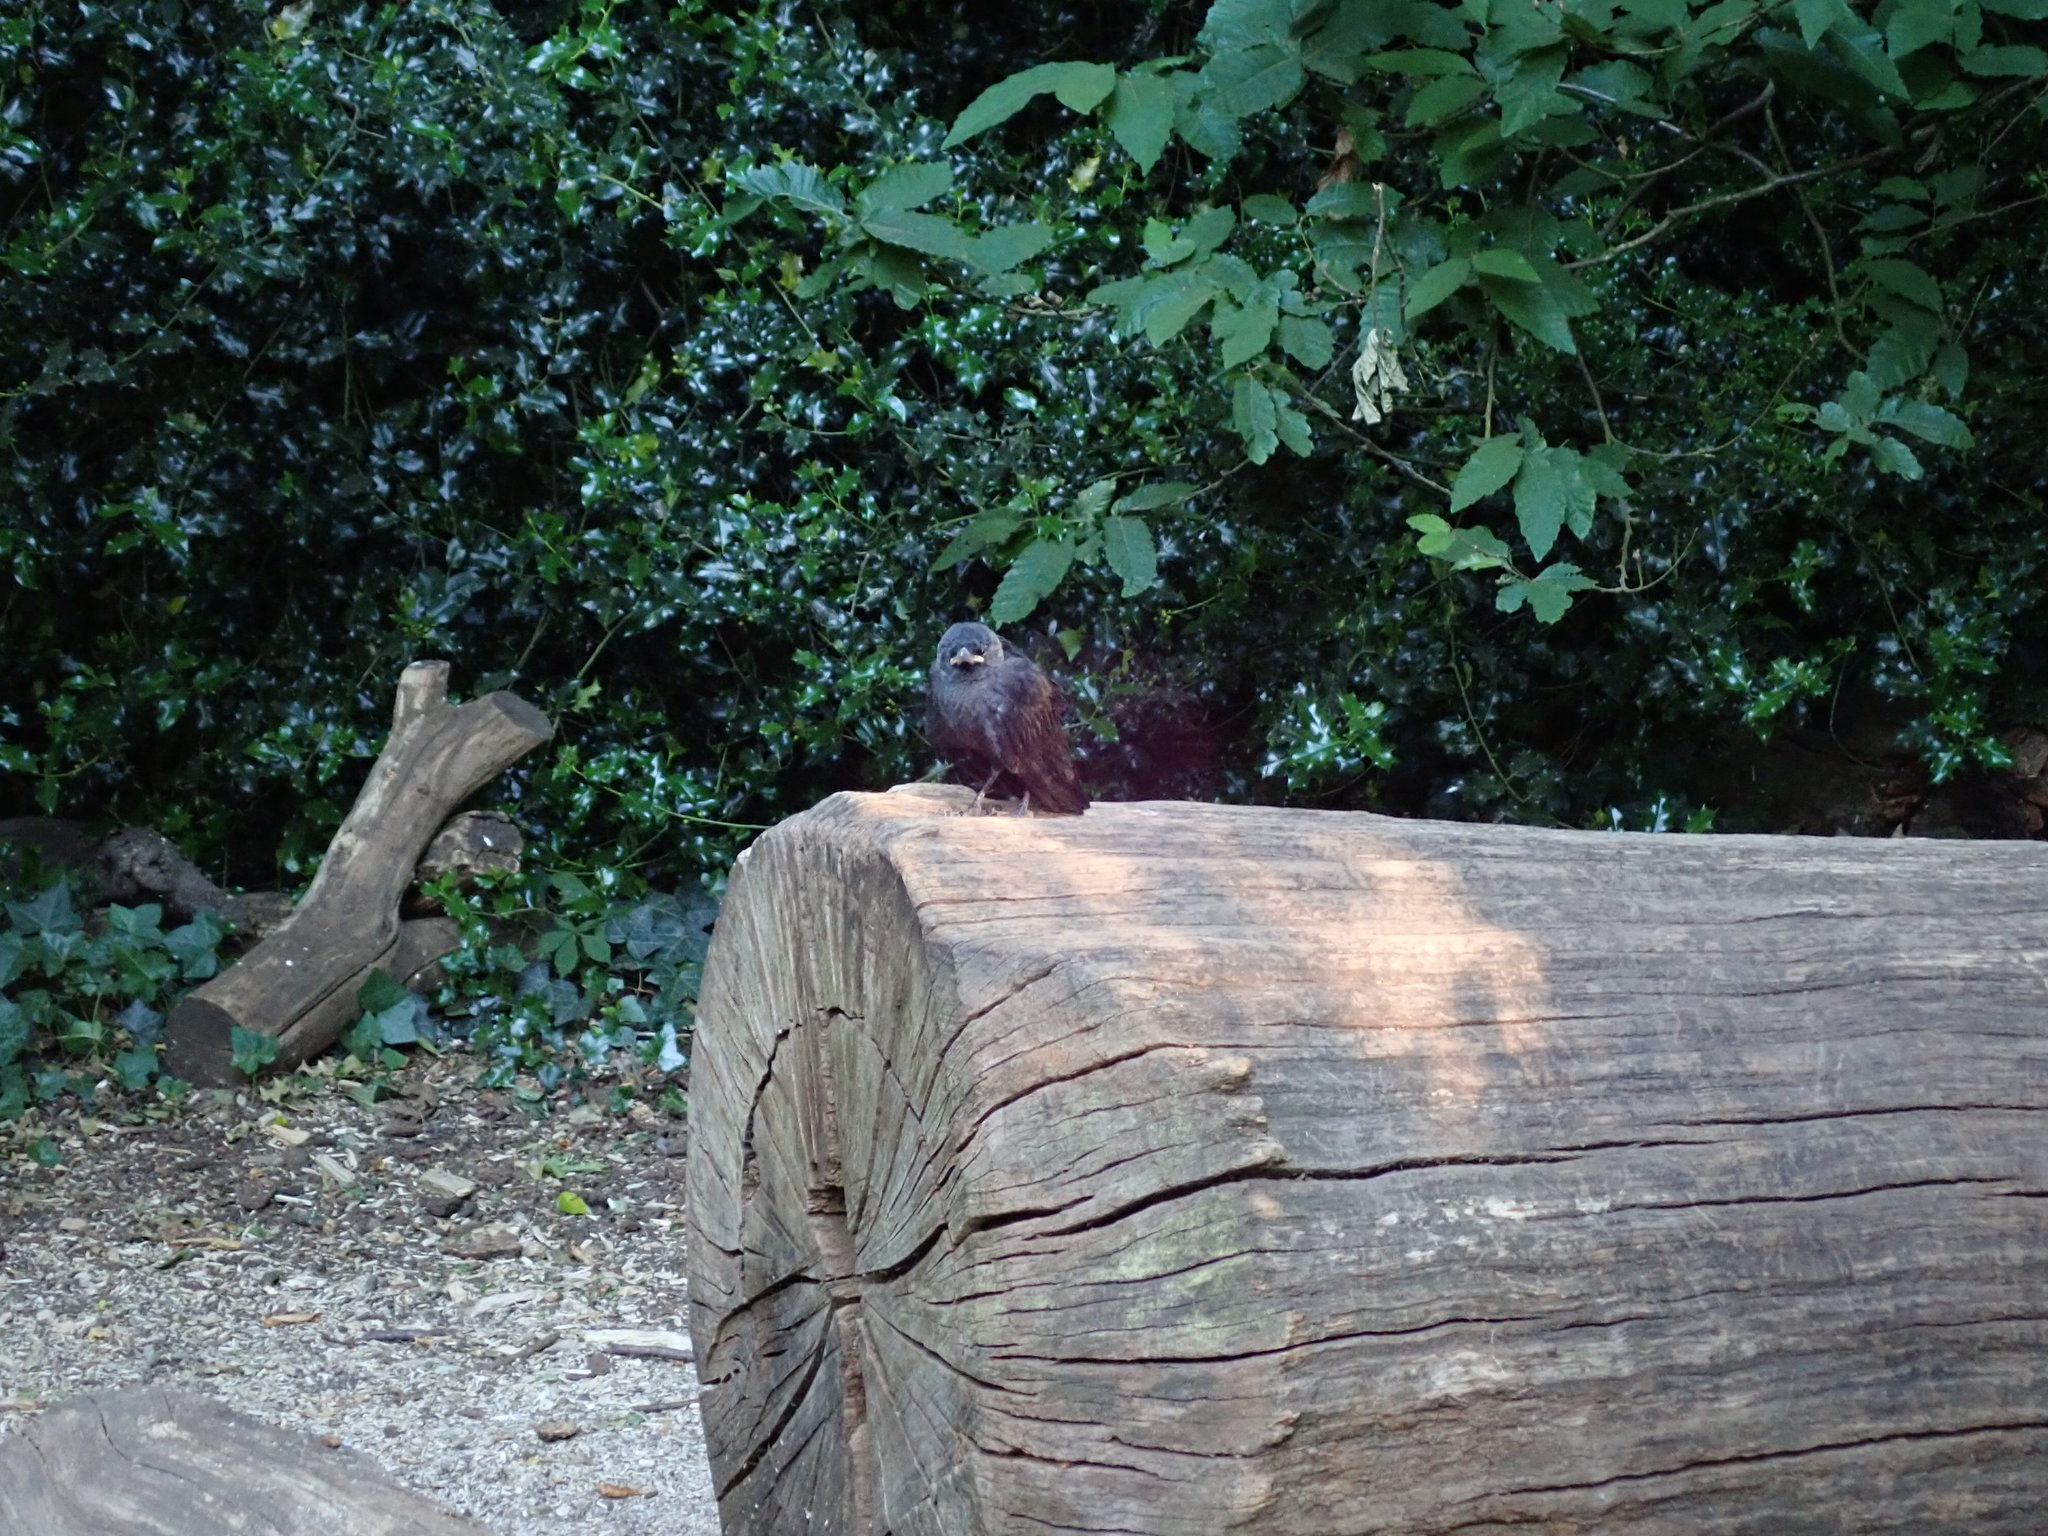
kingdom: Animalia
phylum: Chordata
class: Aves
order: Passeriformes
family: Corvidae
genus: Coloeus
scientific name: Coloeus monedula
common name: Western jackdaw
